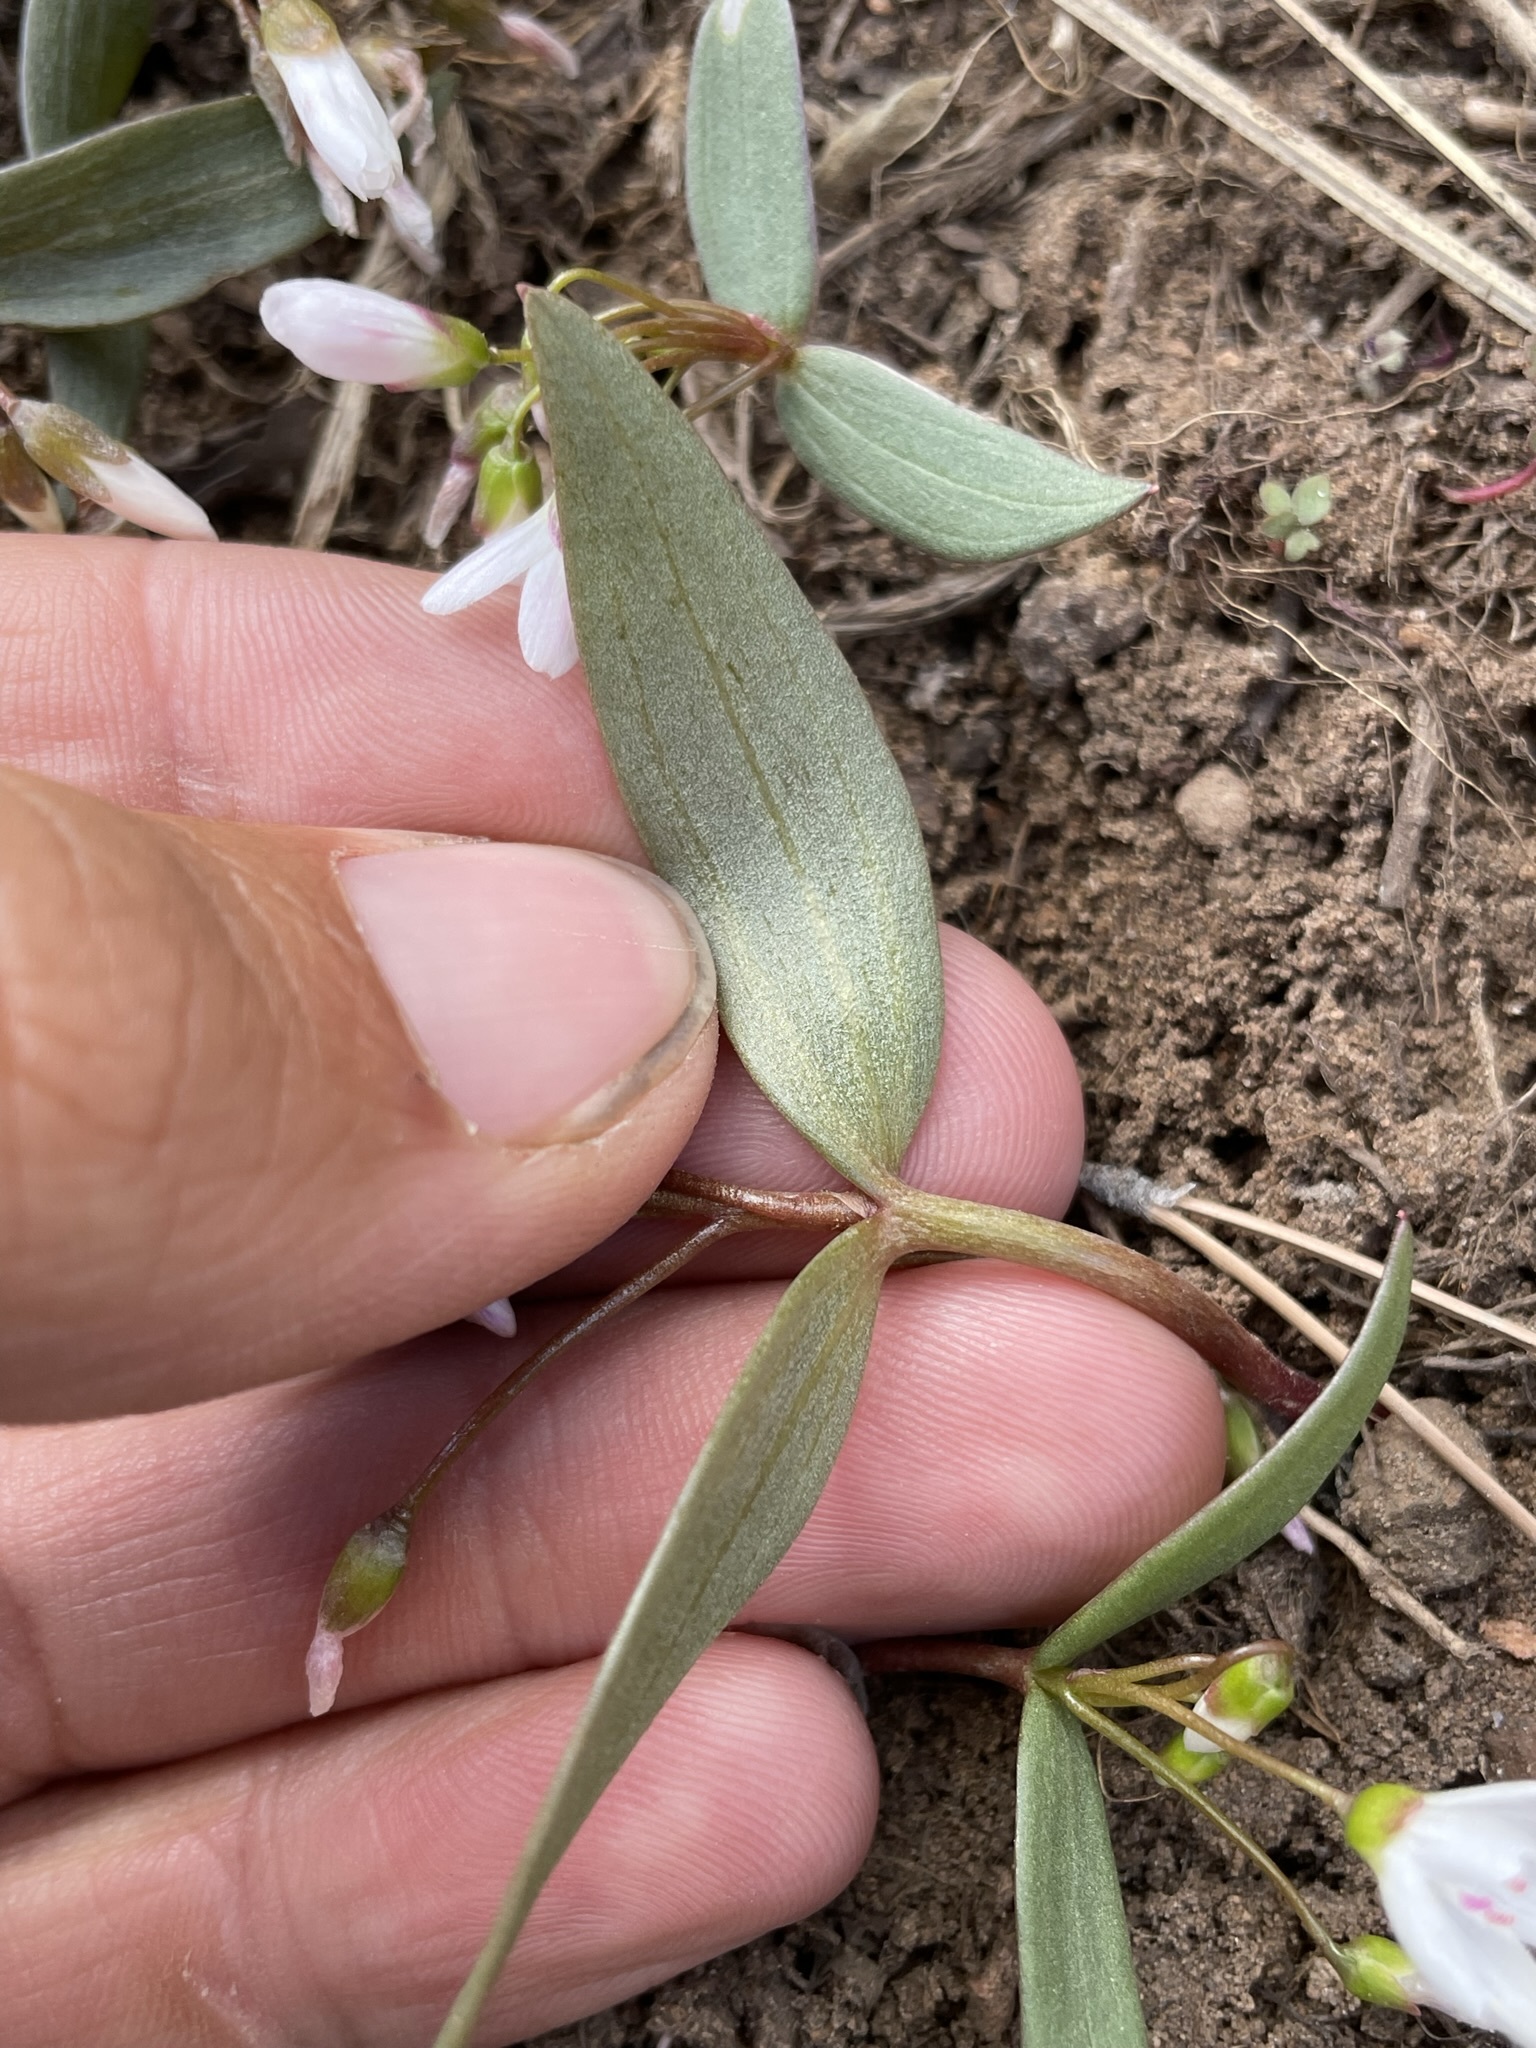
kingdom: Plantae
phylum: Tracheophyta
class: Magnoliopsida
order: Caryophyllales
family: Montiaceae
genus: Claytonia
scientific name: Claytonia lanceolata
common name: Western spring-beauty
